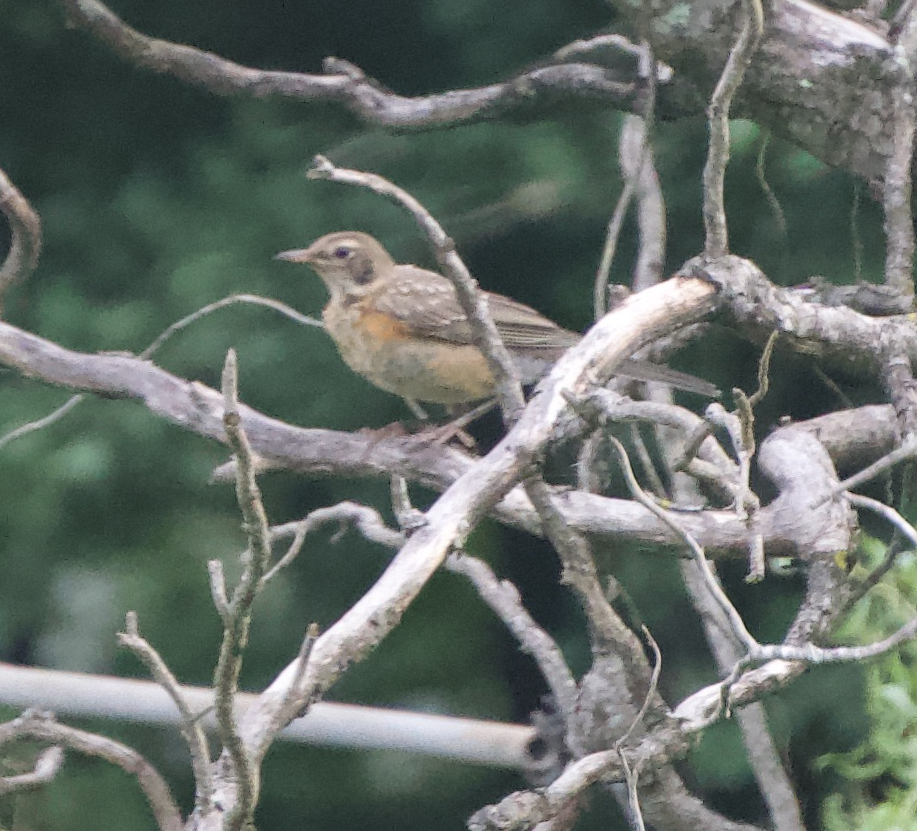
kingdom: Animalia
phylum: Chordata
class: Aves
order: Passeriformes
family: Turdidae
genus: Turdus
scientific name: Turdus migratorius
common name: American robin
